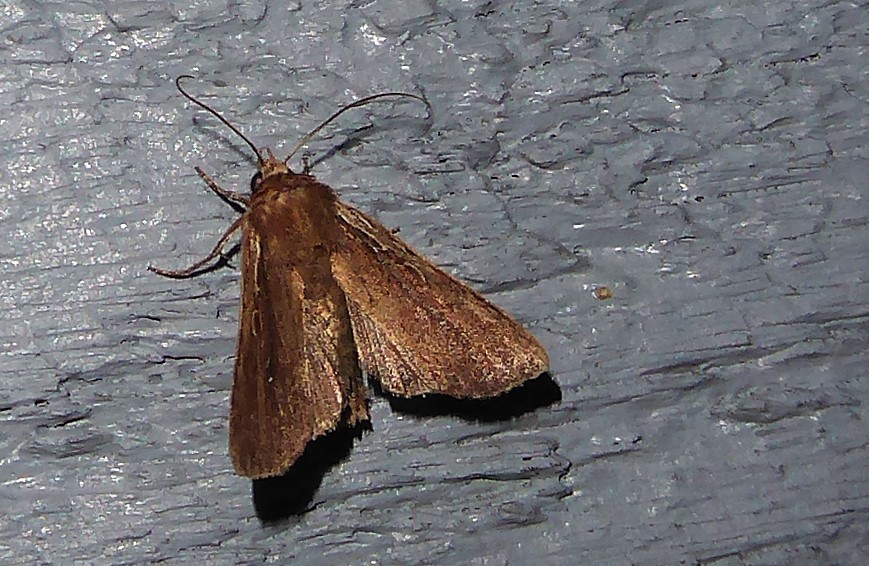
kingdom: Animalia
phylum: Arthropoda
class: Insecta
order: Lepidoptera
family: Noctuidae
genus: Ichneutica
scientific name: Ichneutica
